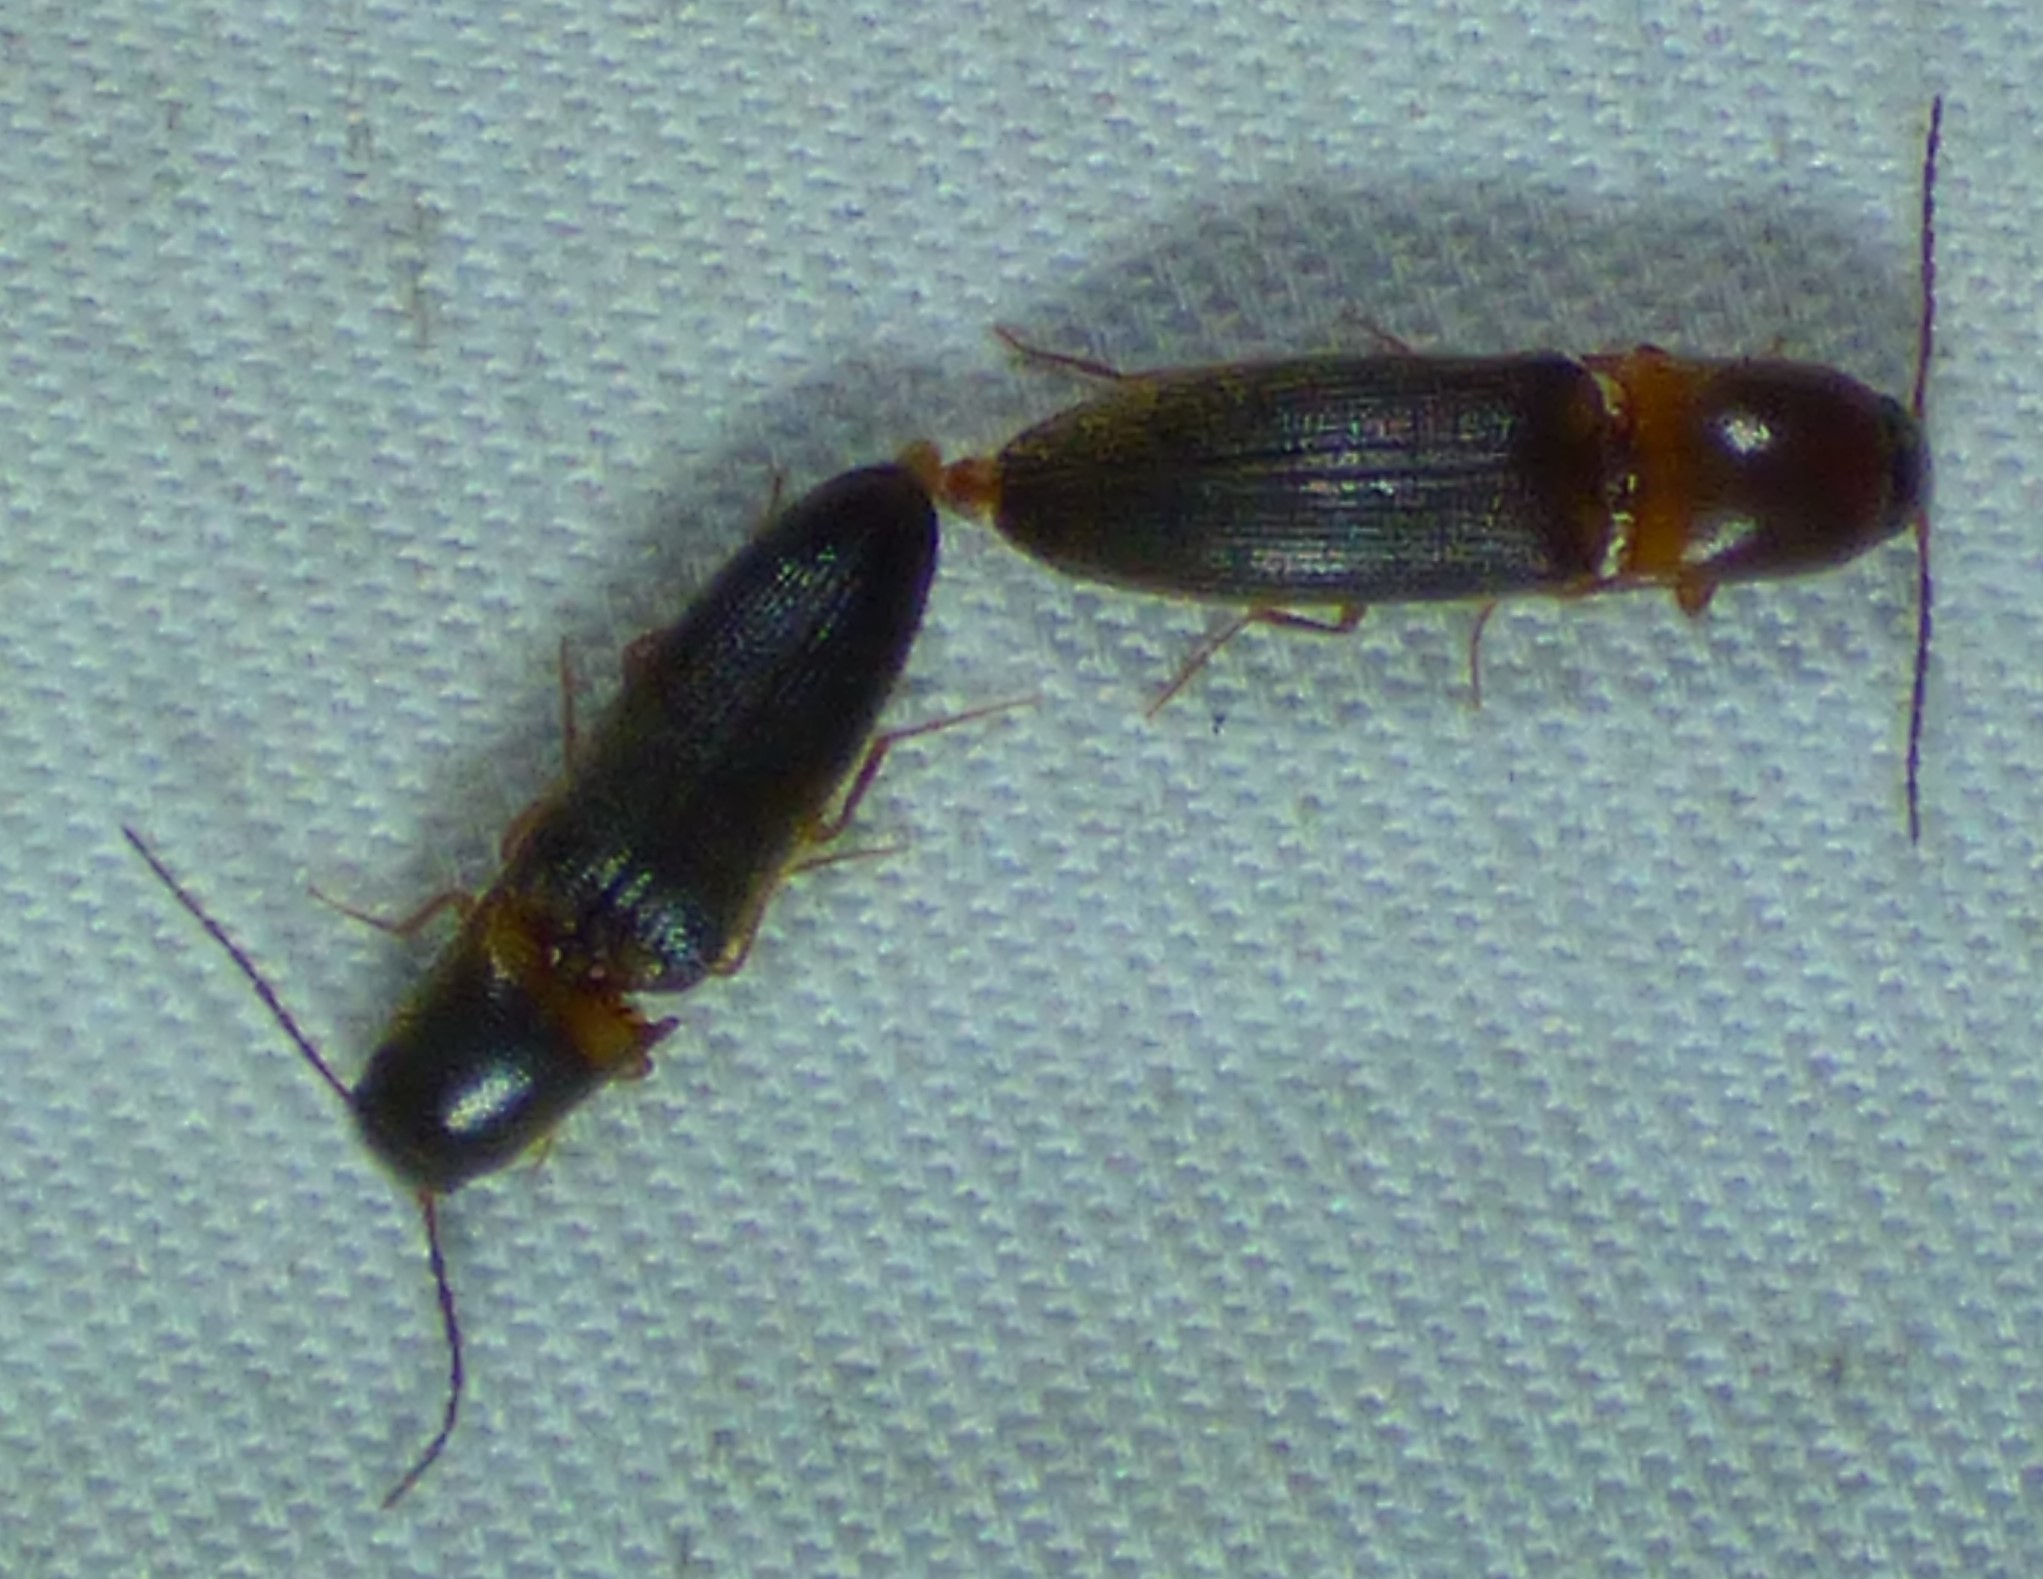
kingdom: Animalia
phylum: Arthropoda
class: Insecta
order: Coleoptera
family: Elateridae
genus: Megapenthes
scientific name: Megapenthes
